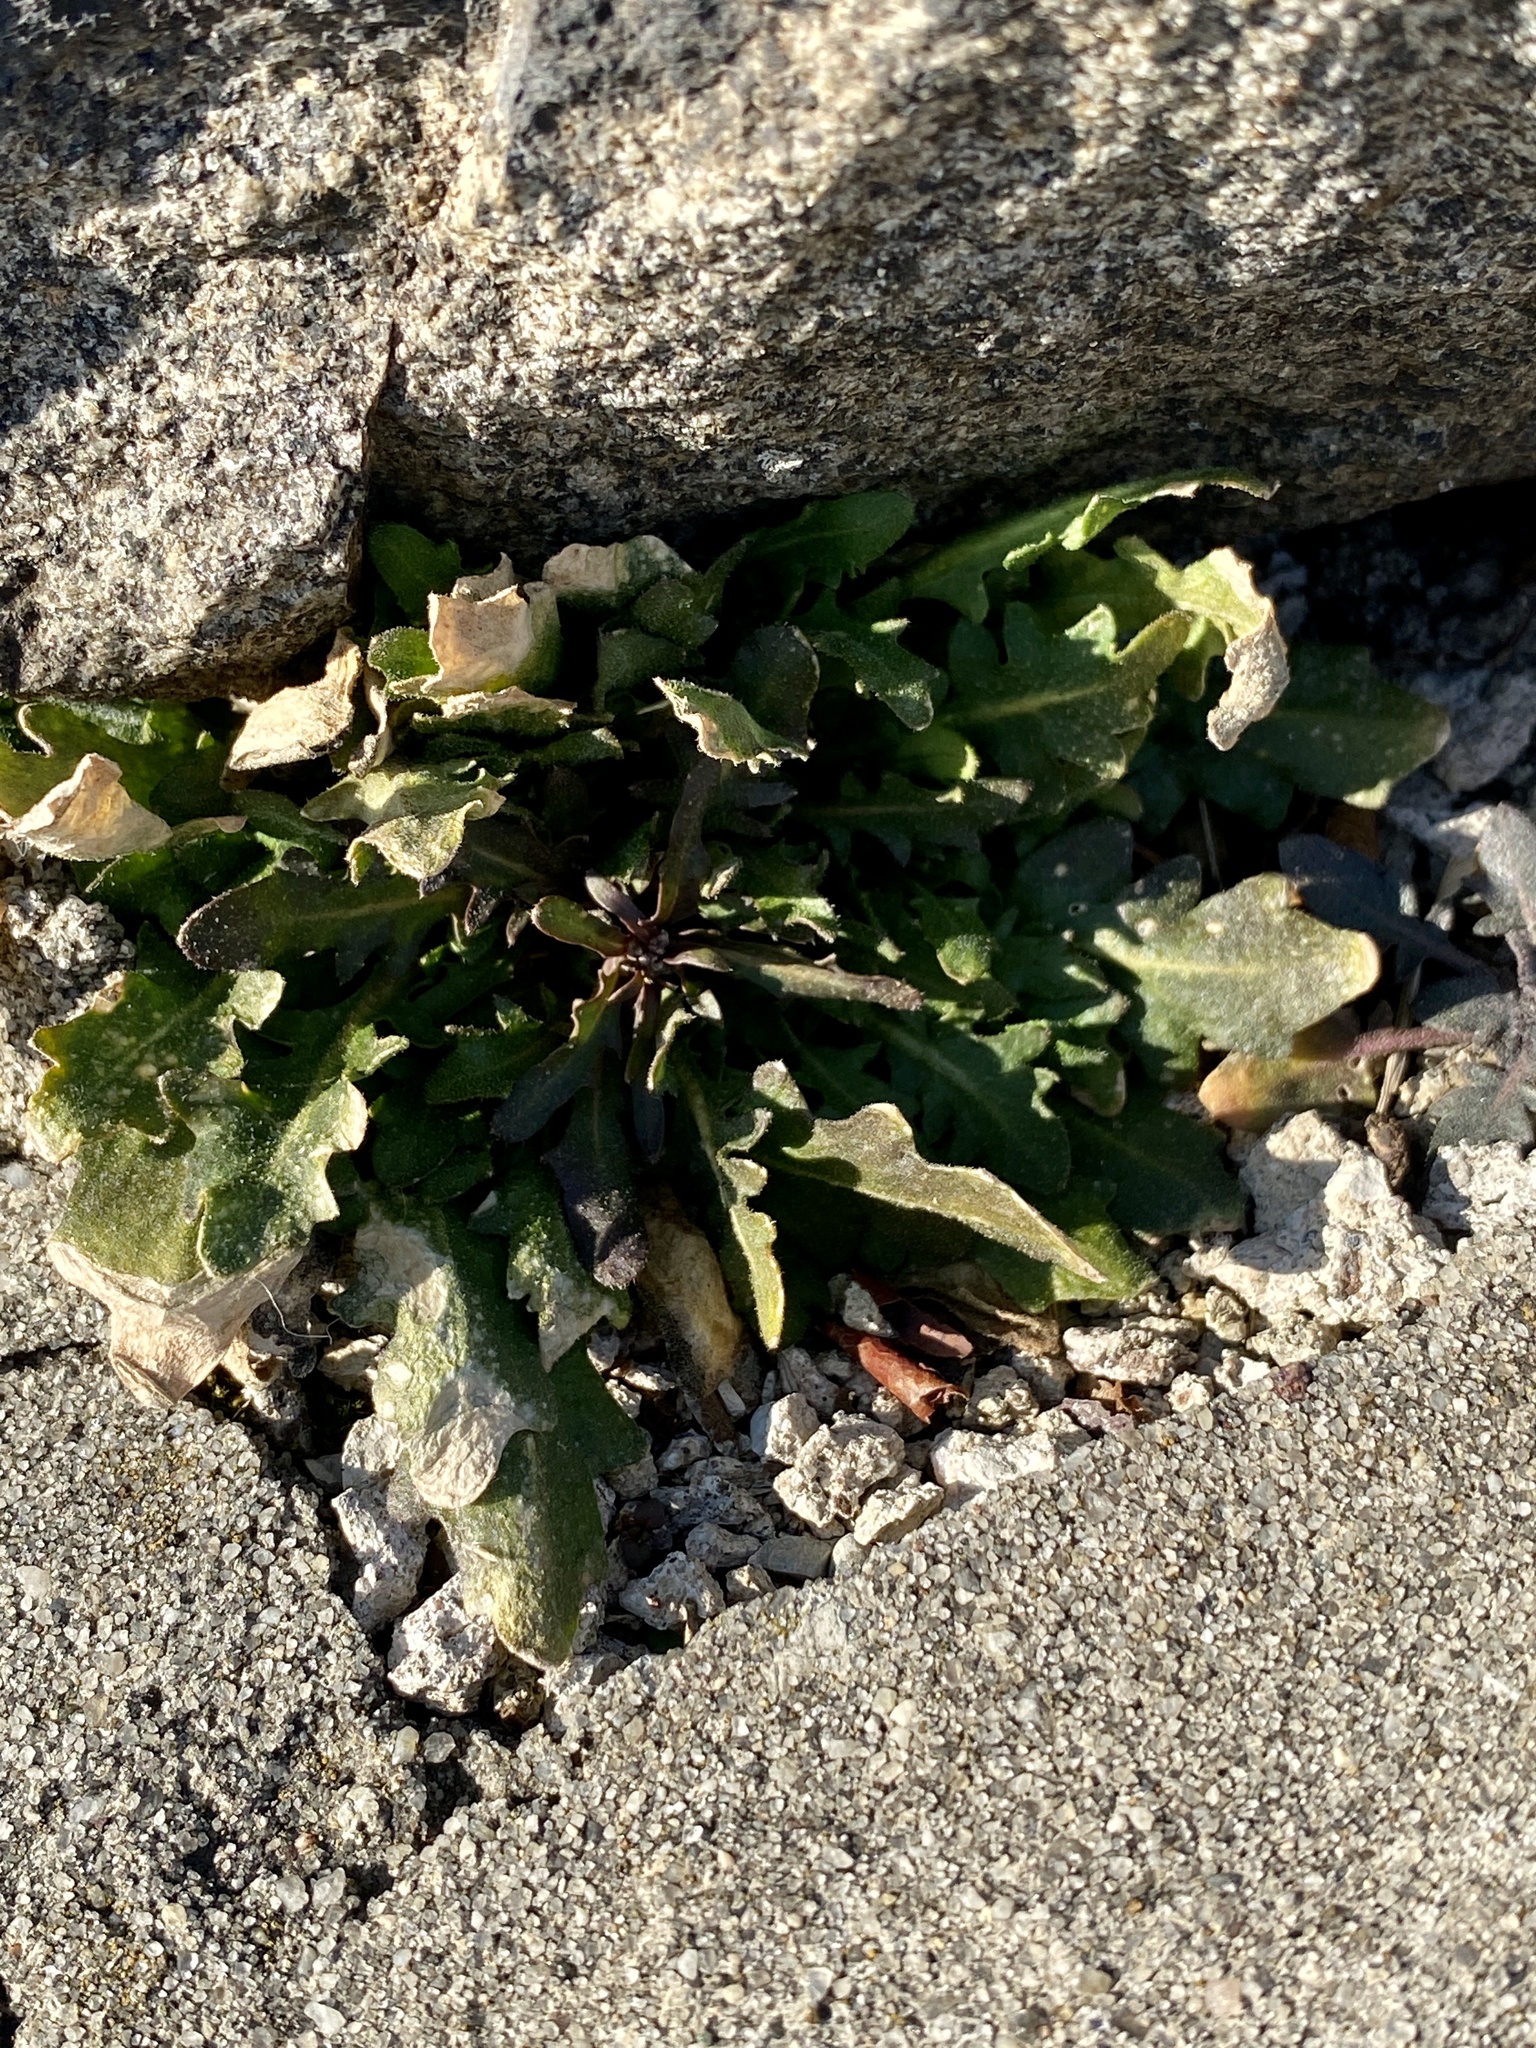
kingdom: Plantae
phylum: Tracheophyta
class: Magnoliopsida
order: Brassicales
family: Brassicaceae
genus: Arabidopsis
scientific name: Arabidopsis lyrata
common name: Lyrate rockcress
